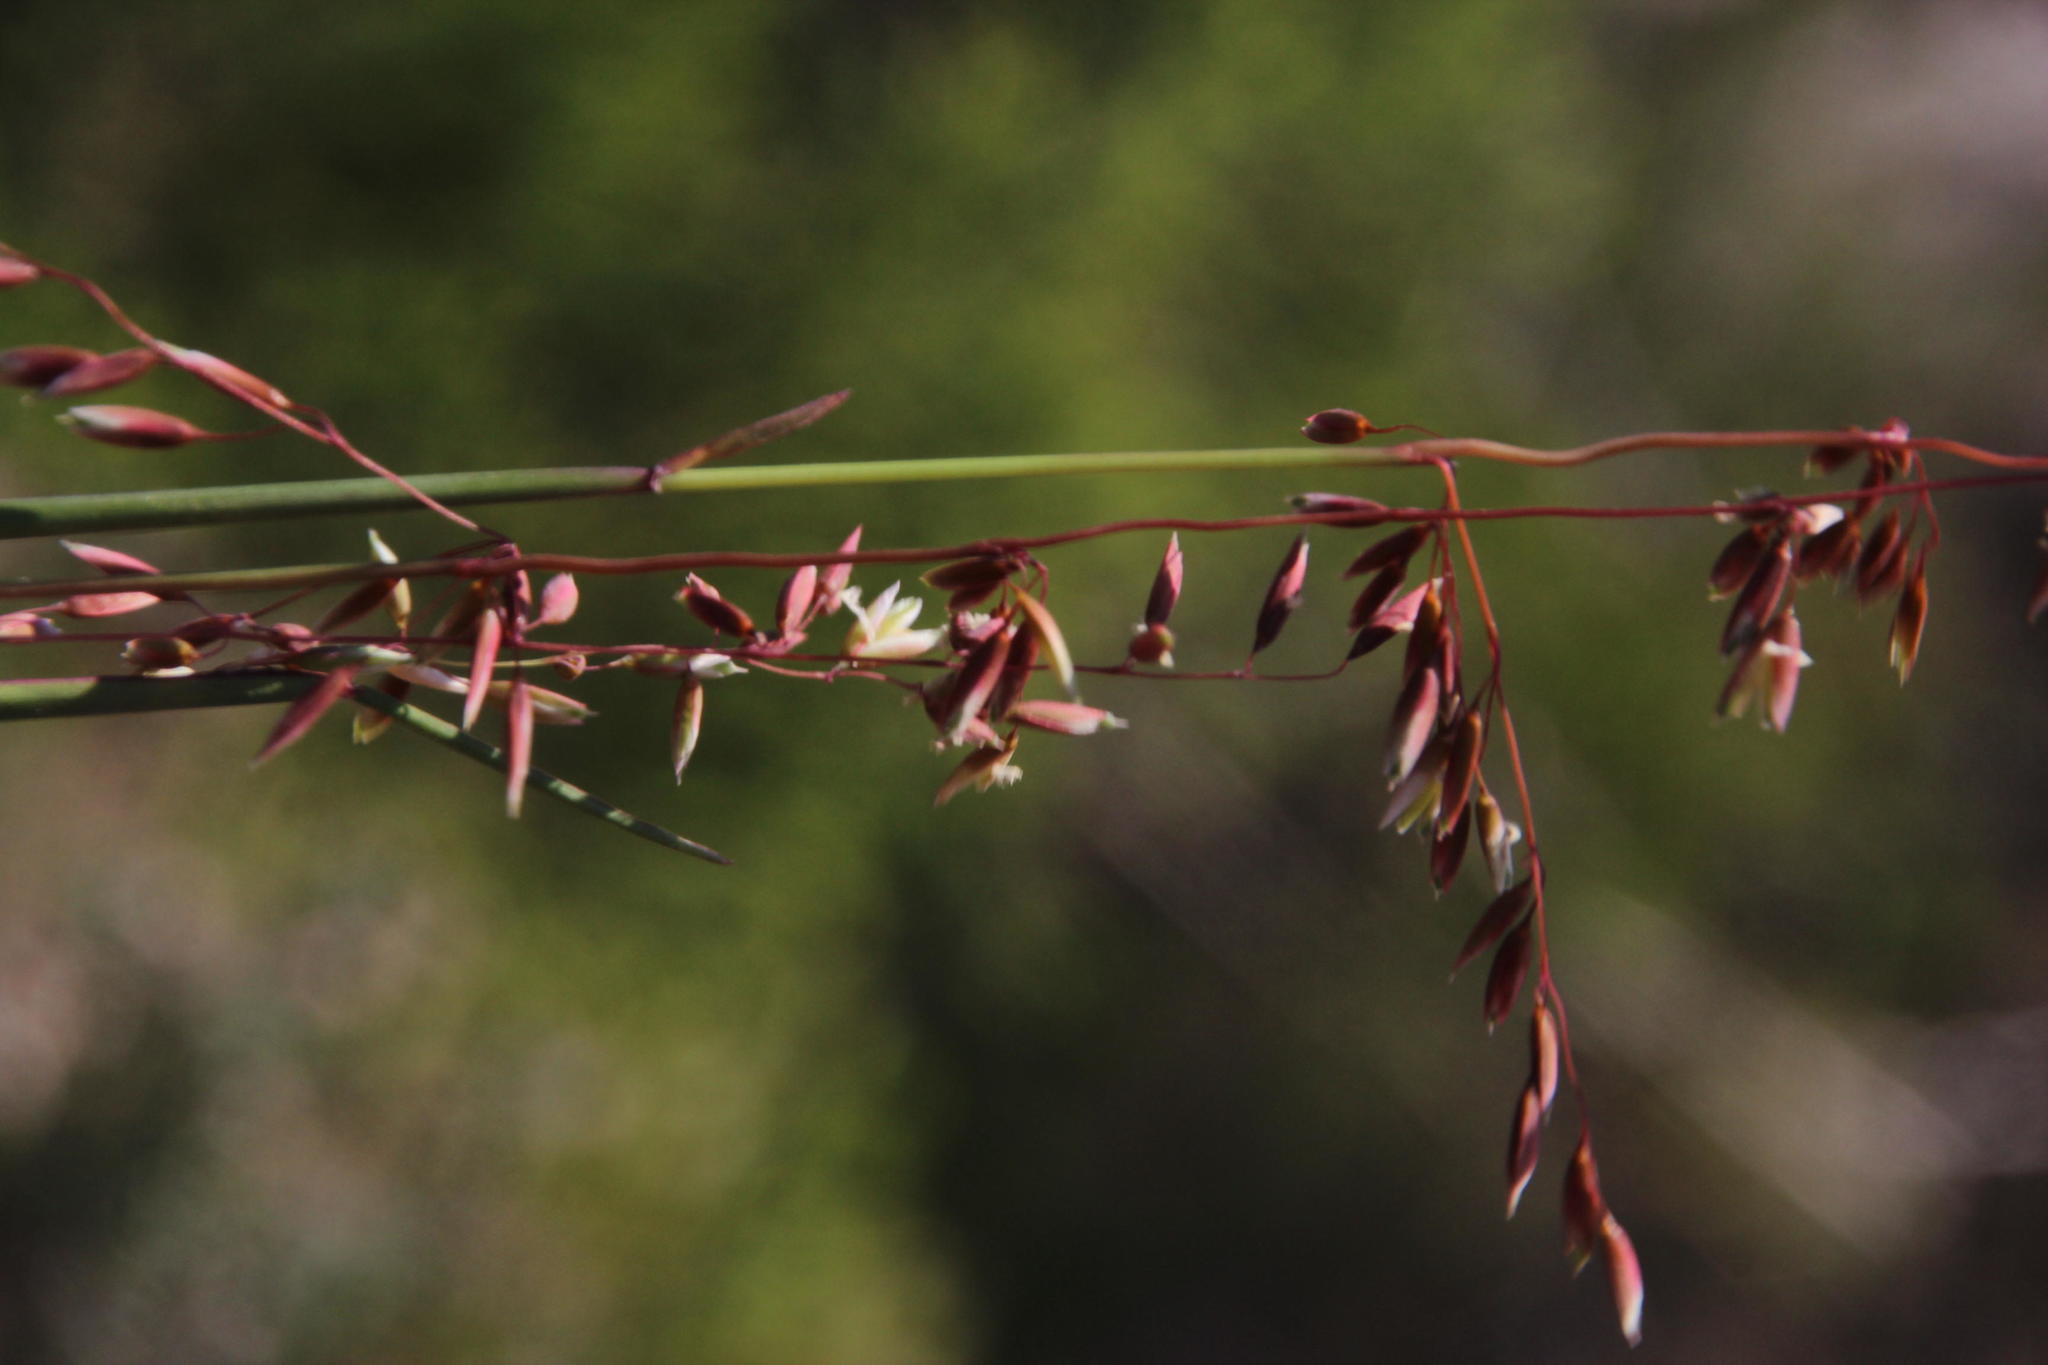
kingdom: Plantae
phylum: Tracheophyta
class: Liliopsida
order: Poales
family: Poaceae
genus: Ehrharta
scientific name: Ehrharta calycina
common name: Perennial veldtgrass
